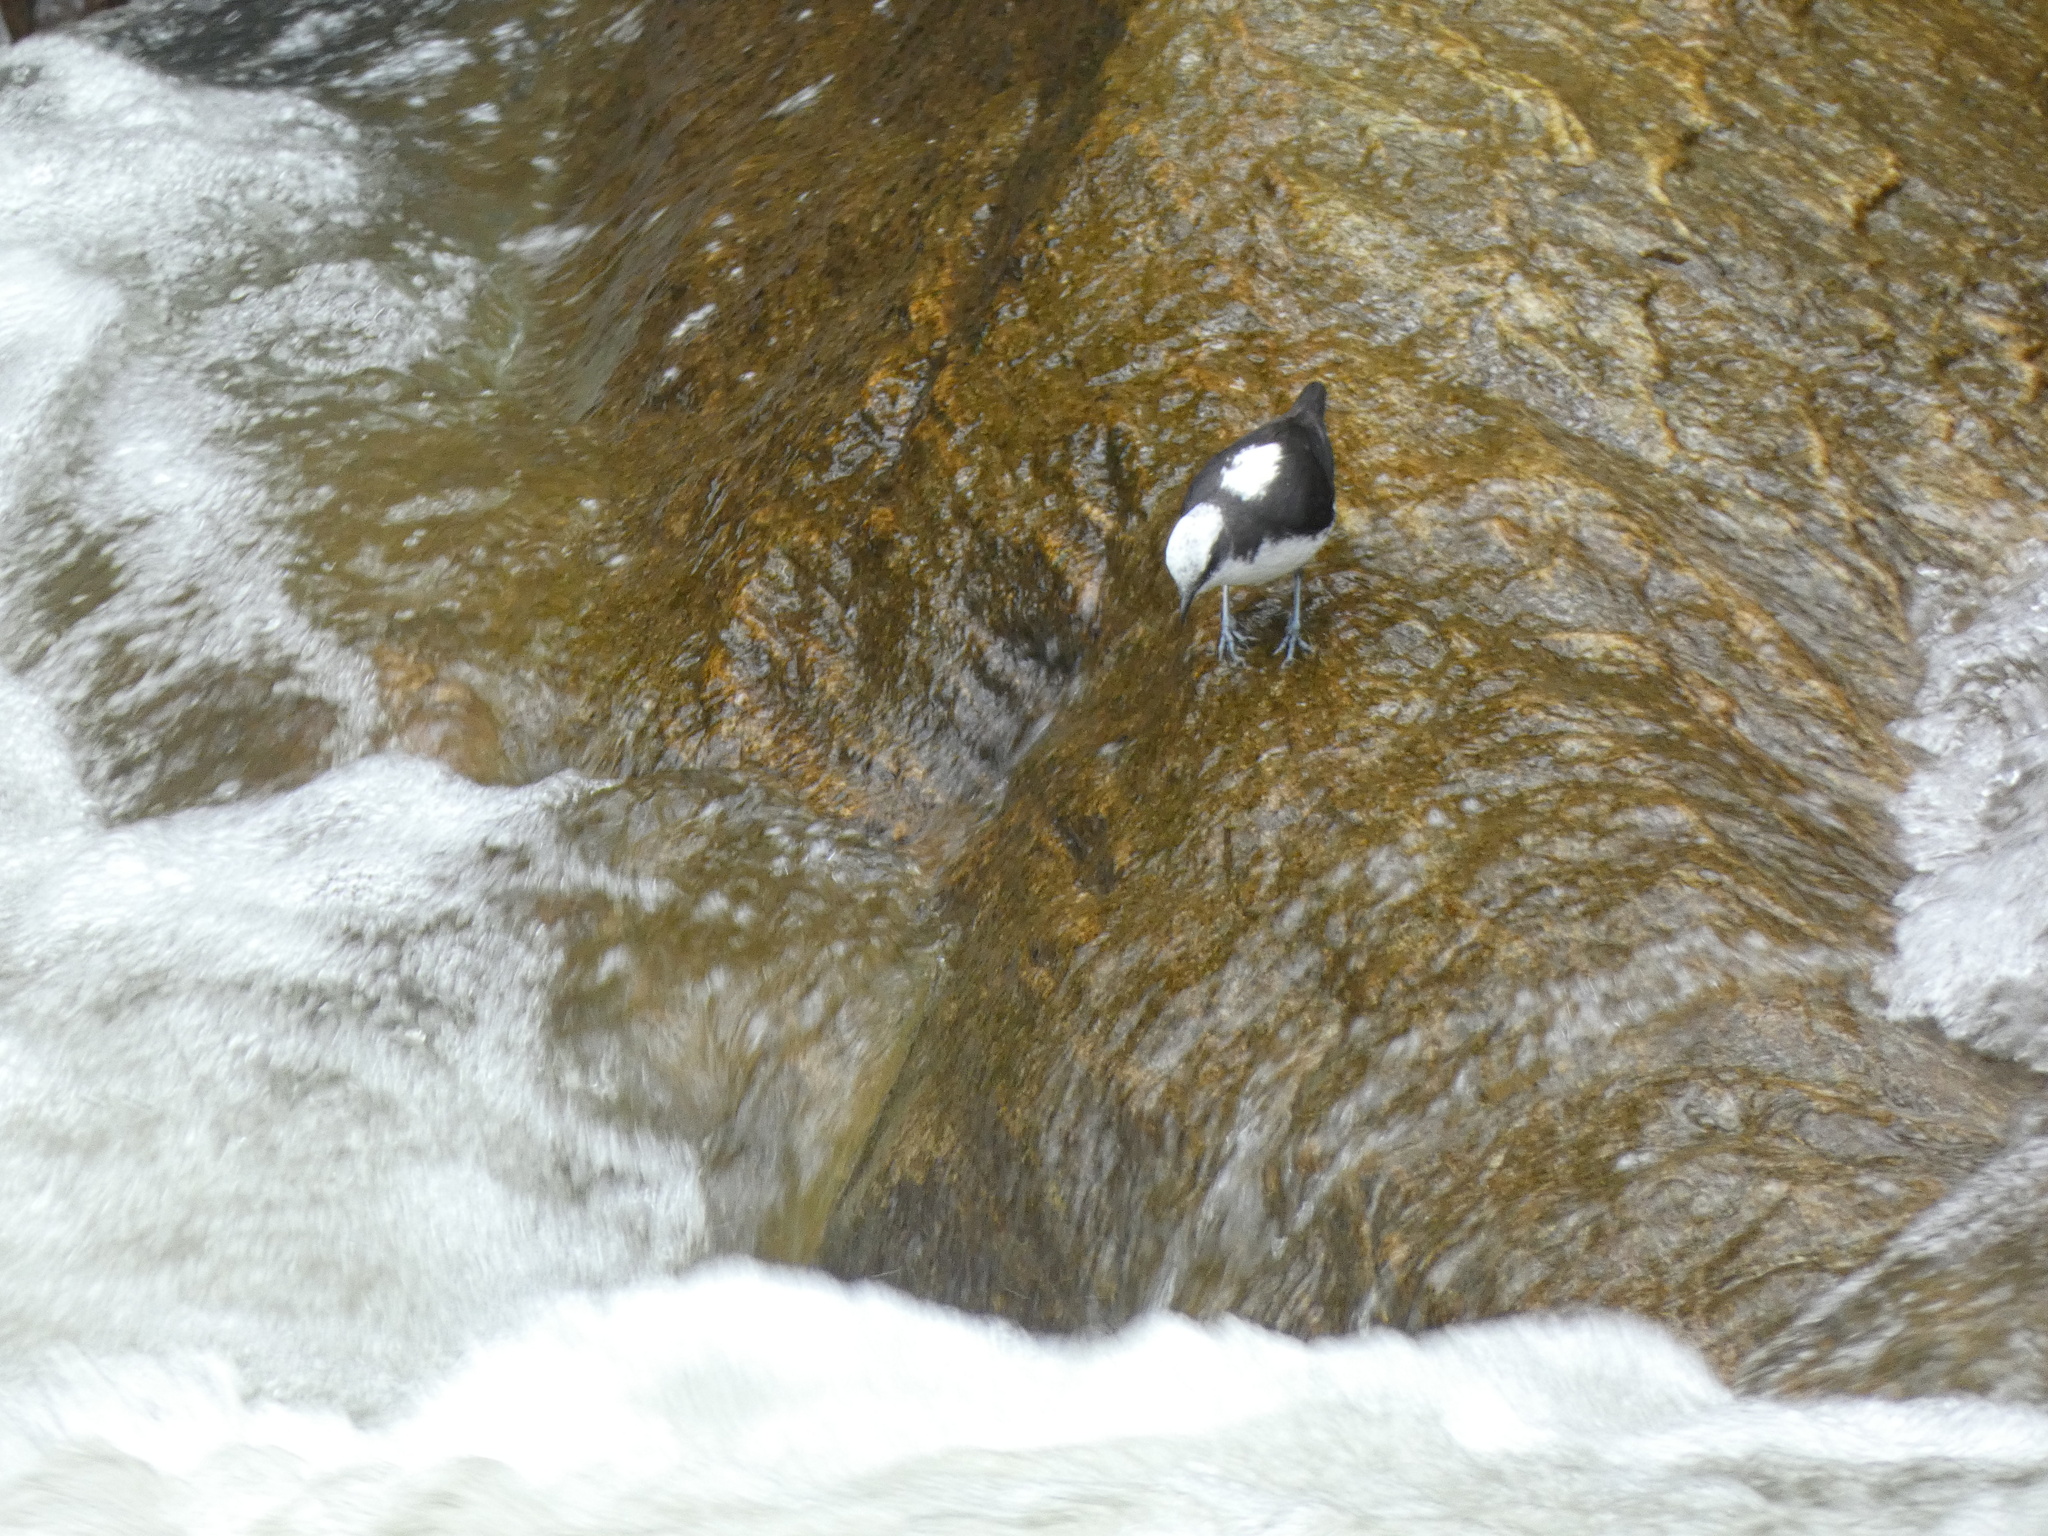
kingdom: Animalia
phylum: Chordata
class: Aves
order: Passeriformes
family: Cinclidae
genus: Cinclus
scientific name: Cinclus leucocephalus
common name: White-capped dipper
